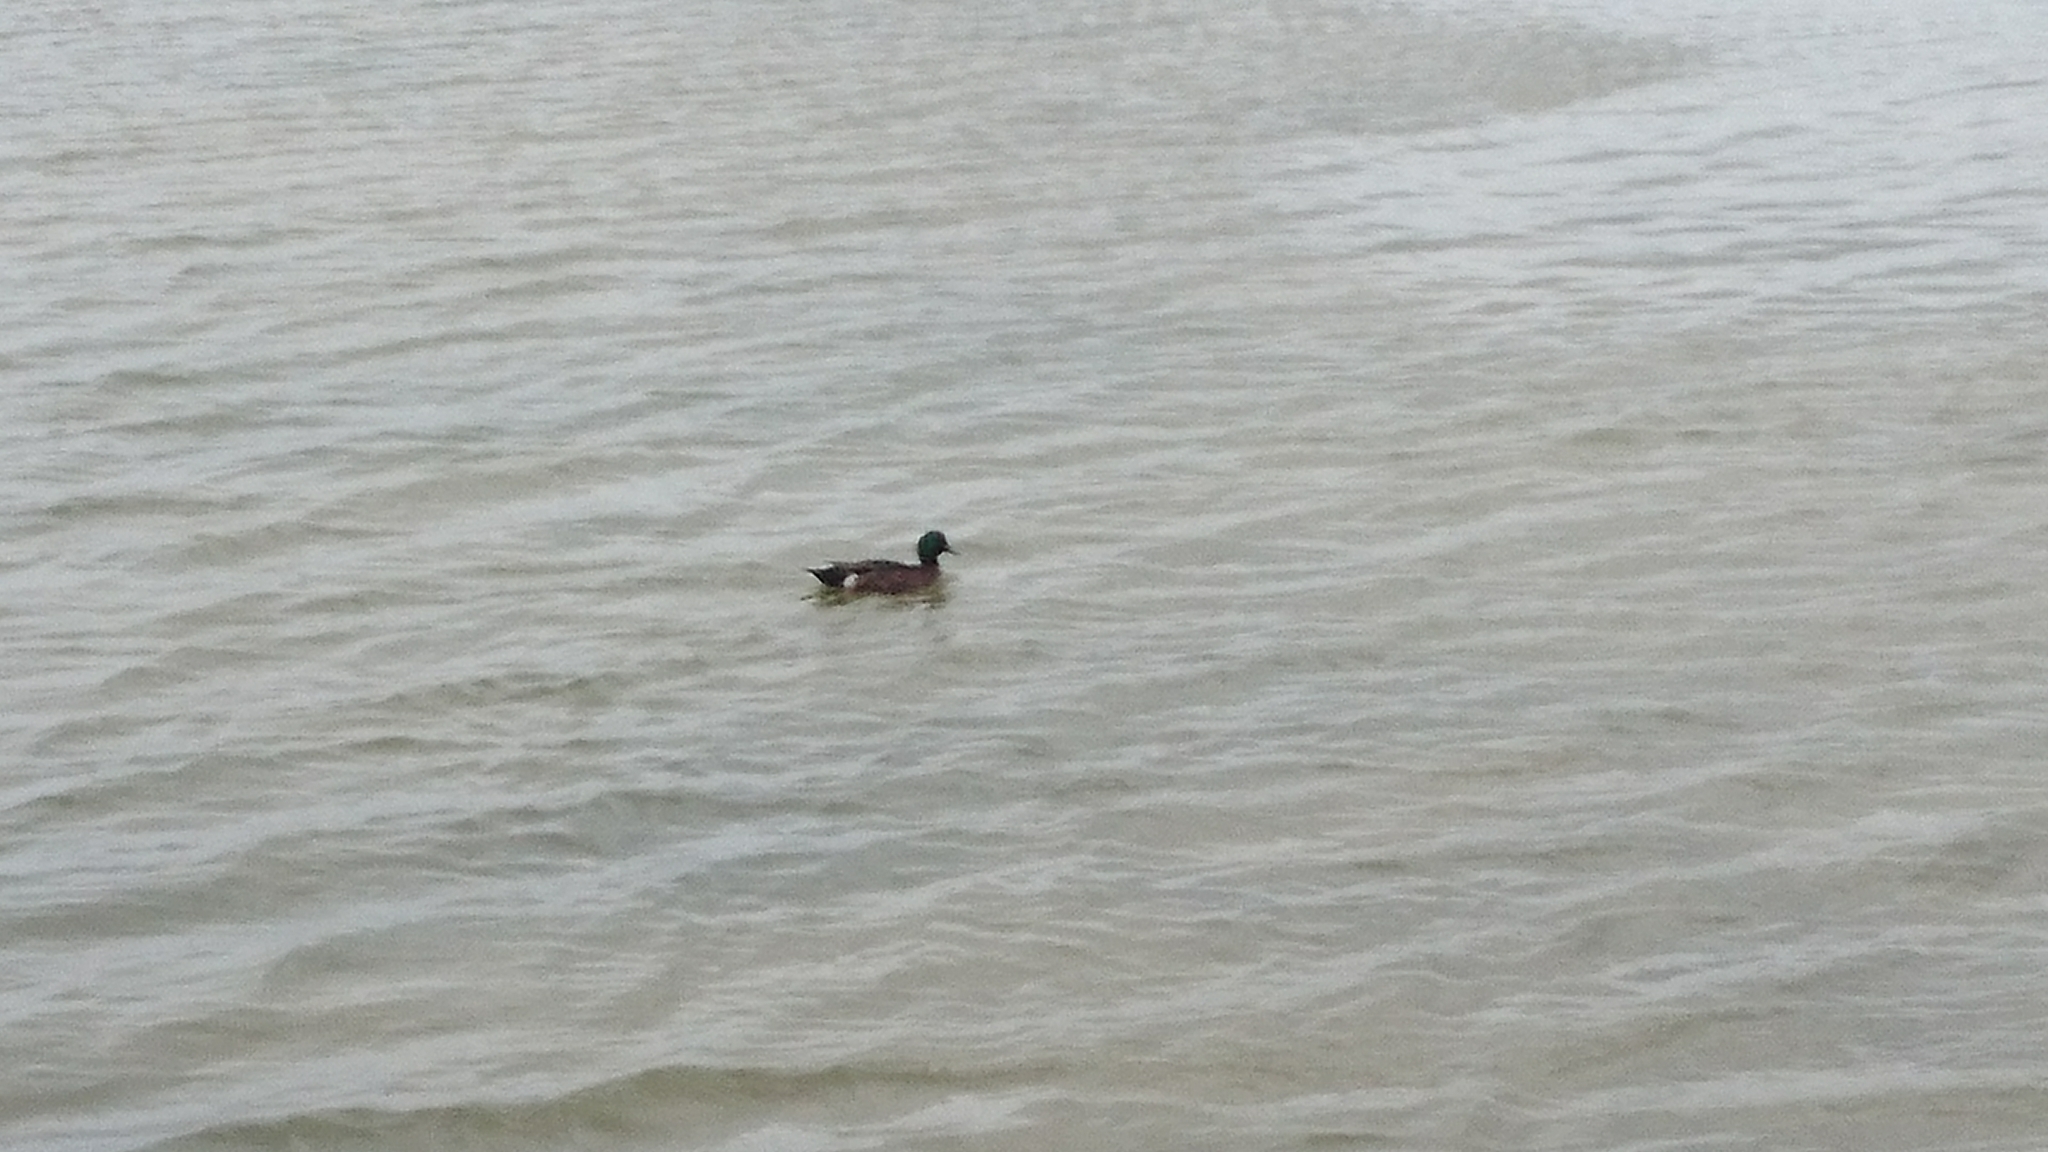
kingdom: Animalia
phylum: Chordata
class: Aves
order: Anseriformes
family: Anatidae
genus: Anas
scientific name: Anas castanea
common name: Chestnut teal
